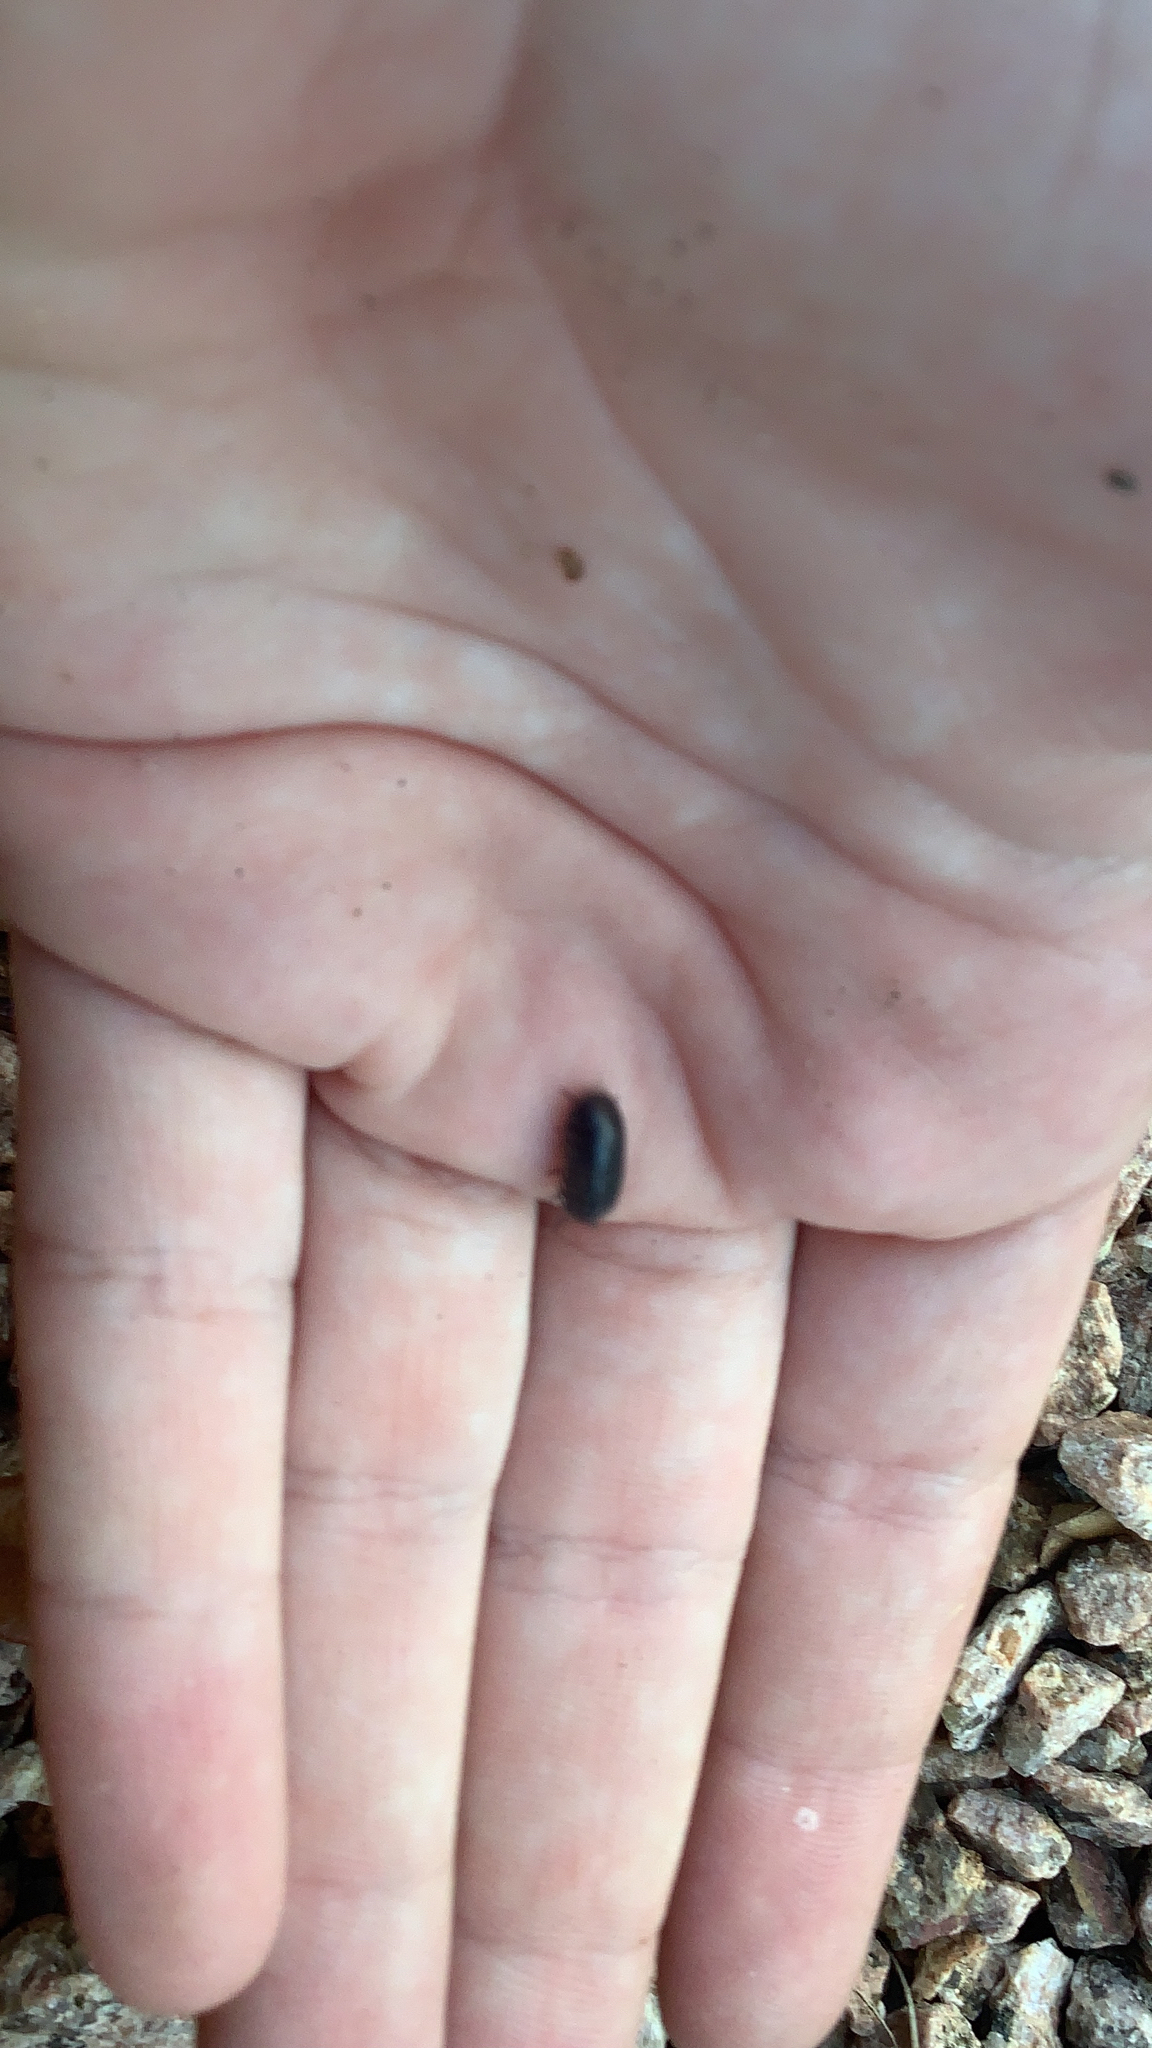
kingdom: Animalia
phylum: Arthropoda
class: Malacostraca
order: Isopoda
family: Armadillidiidae
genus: Armadillidium
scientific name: Armadillidium vulgare
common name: Common pill woodlouse
